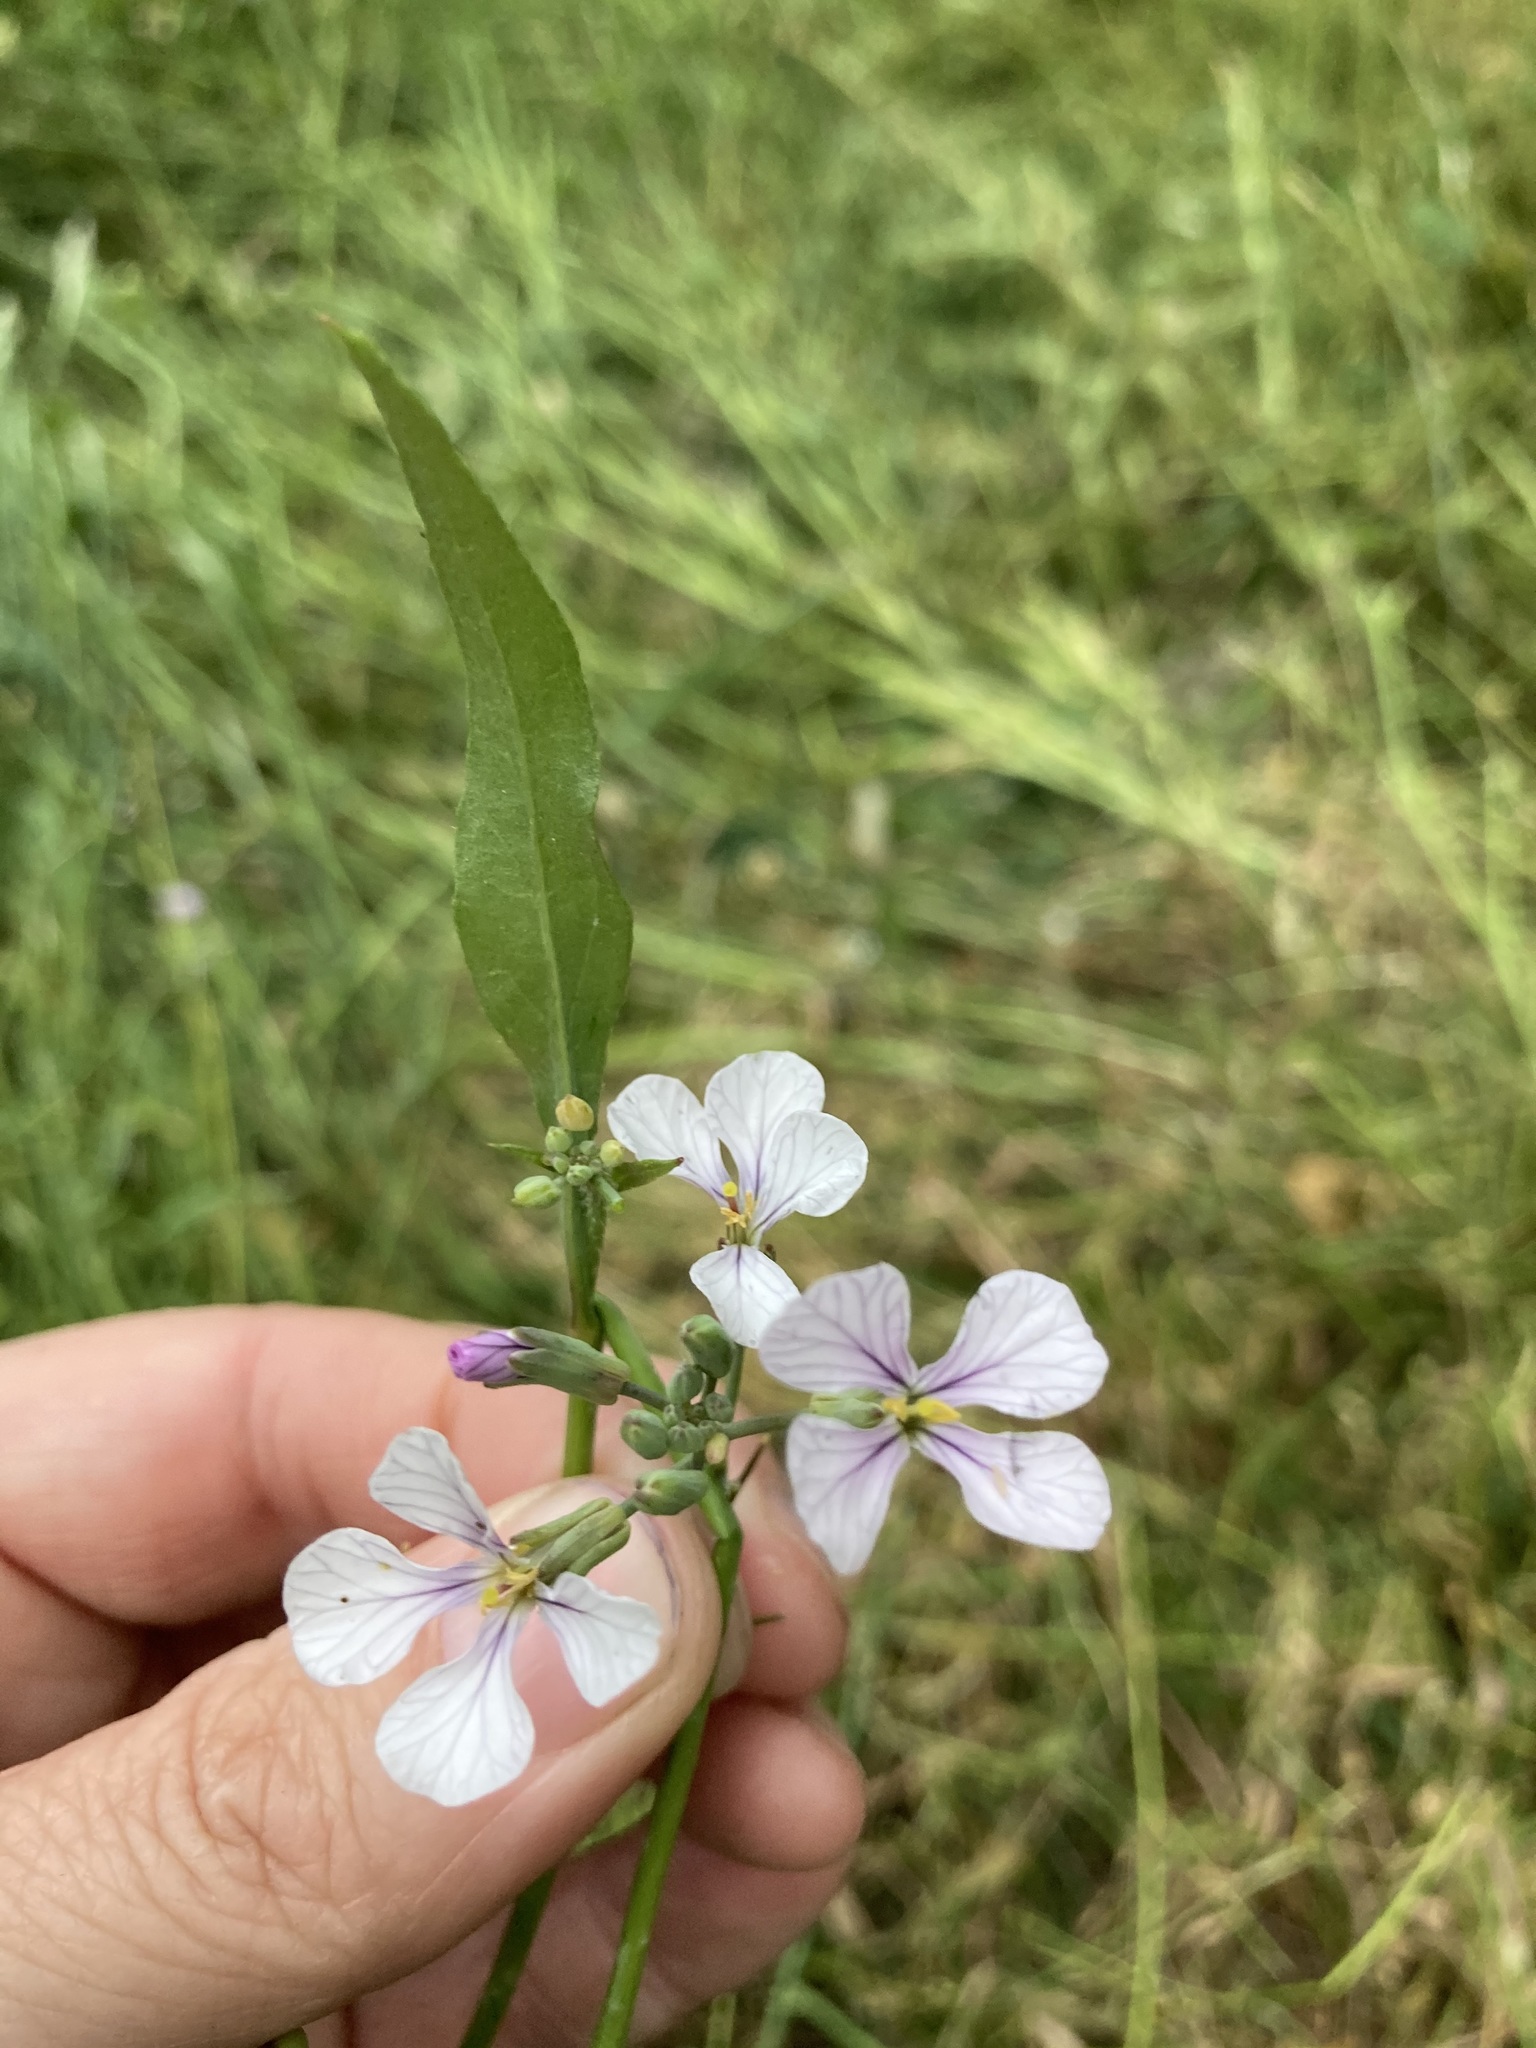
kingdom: Plantae
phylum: Tracheophyta
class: Magnoliopsida
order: Brassicales
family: Brassicaceae
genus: Raphanus
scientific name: Raphanus sativus
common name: Cultivated radish
